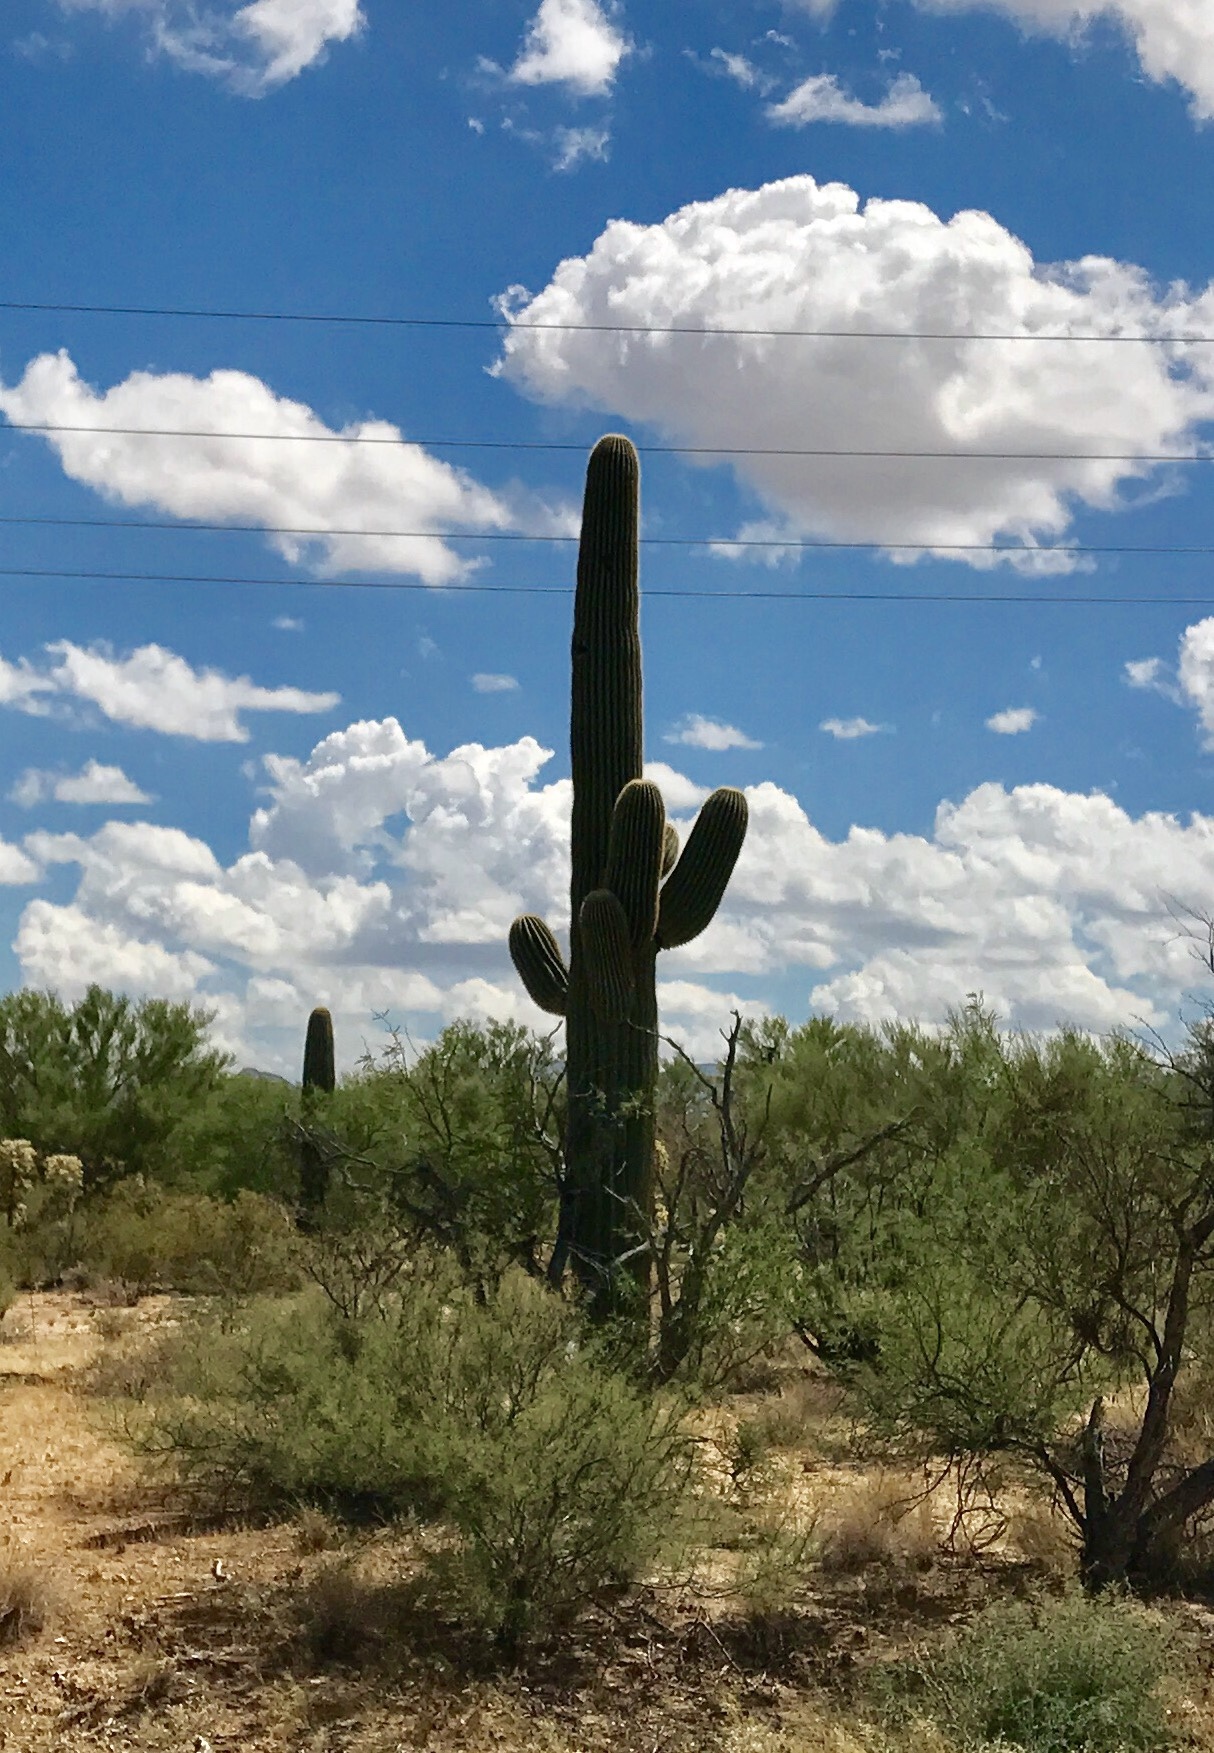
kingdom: Plantae
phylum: Tracheophyta
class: Magnoliopsida
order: Caryophyllales
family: Cactaceae
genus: Carnegiea
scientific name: Carnegiea gigantea
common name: Saguaro
